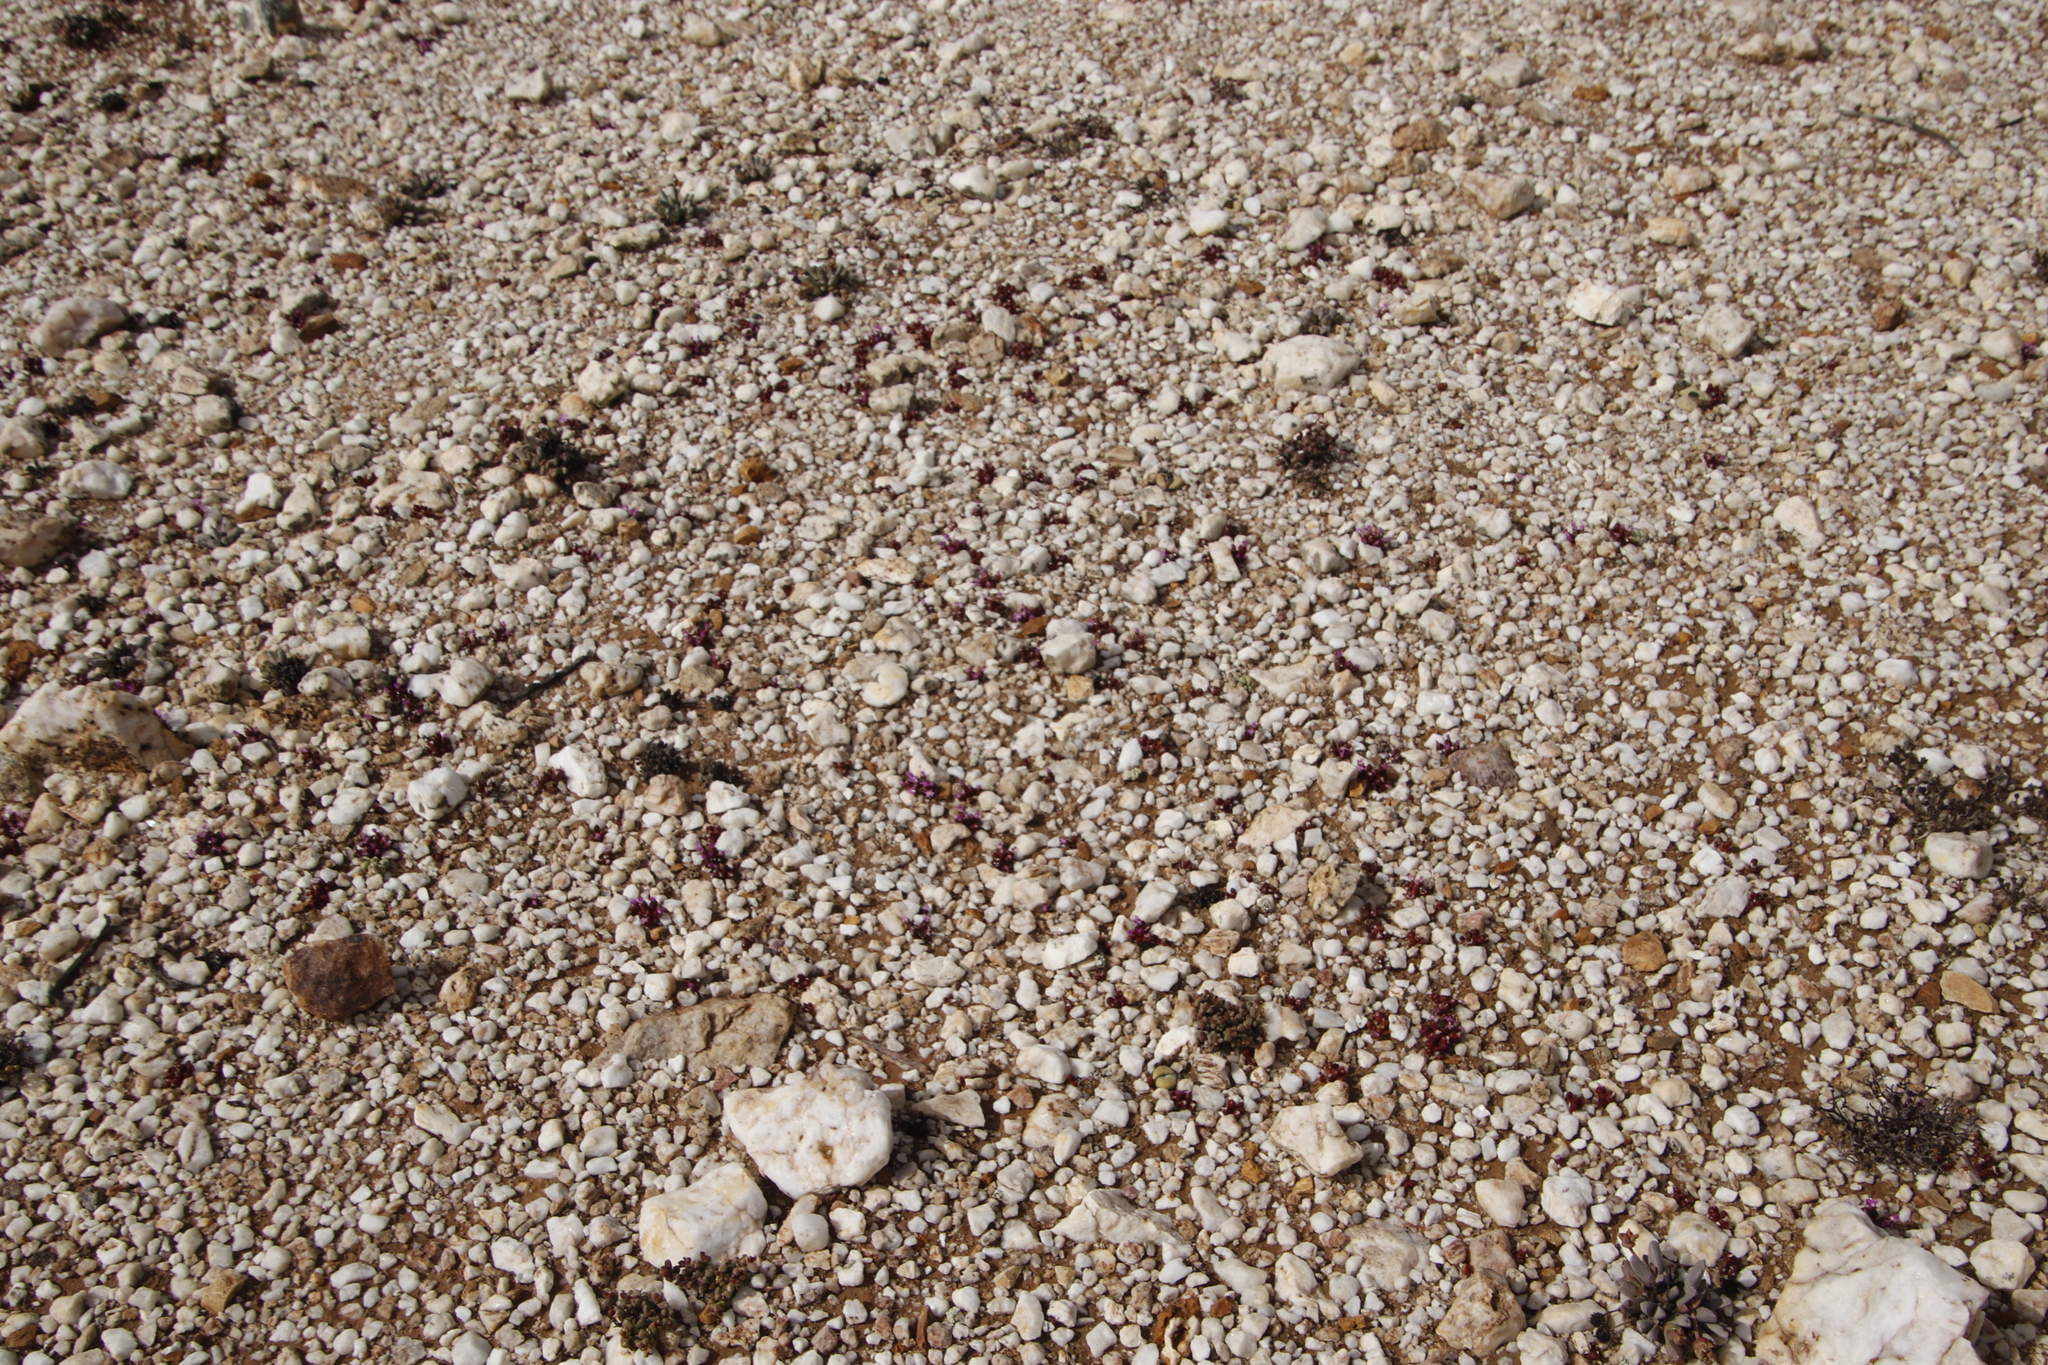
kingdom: Plantae
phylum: Tracheophyta
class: Magnoliopsida
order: Caryophyllales
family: Aizoaceae
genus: Oophytum
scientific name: Oophytum nanum
